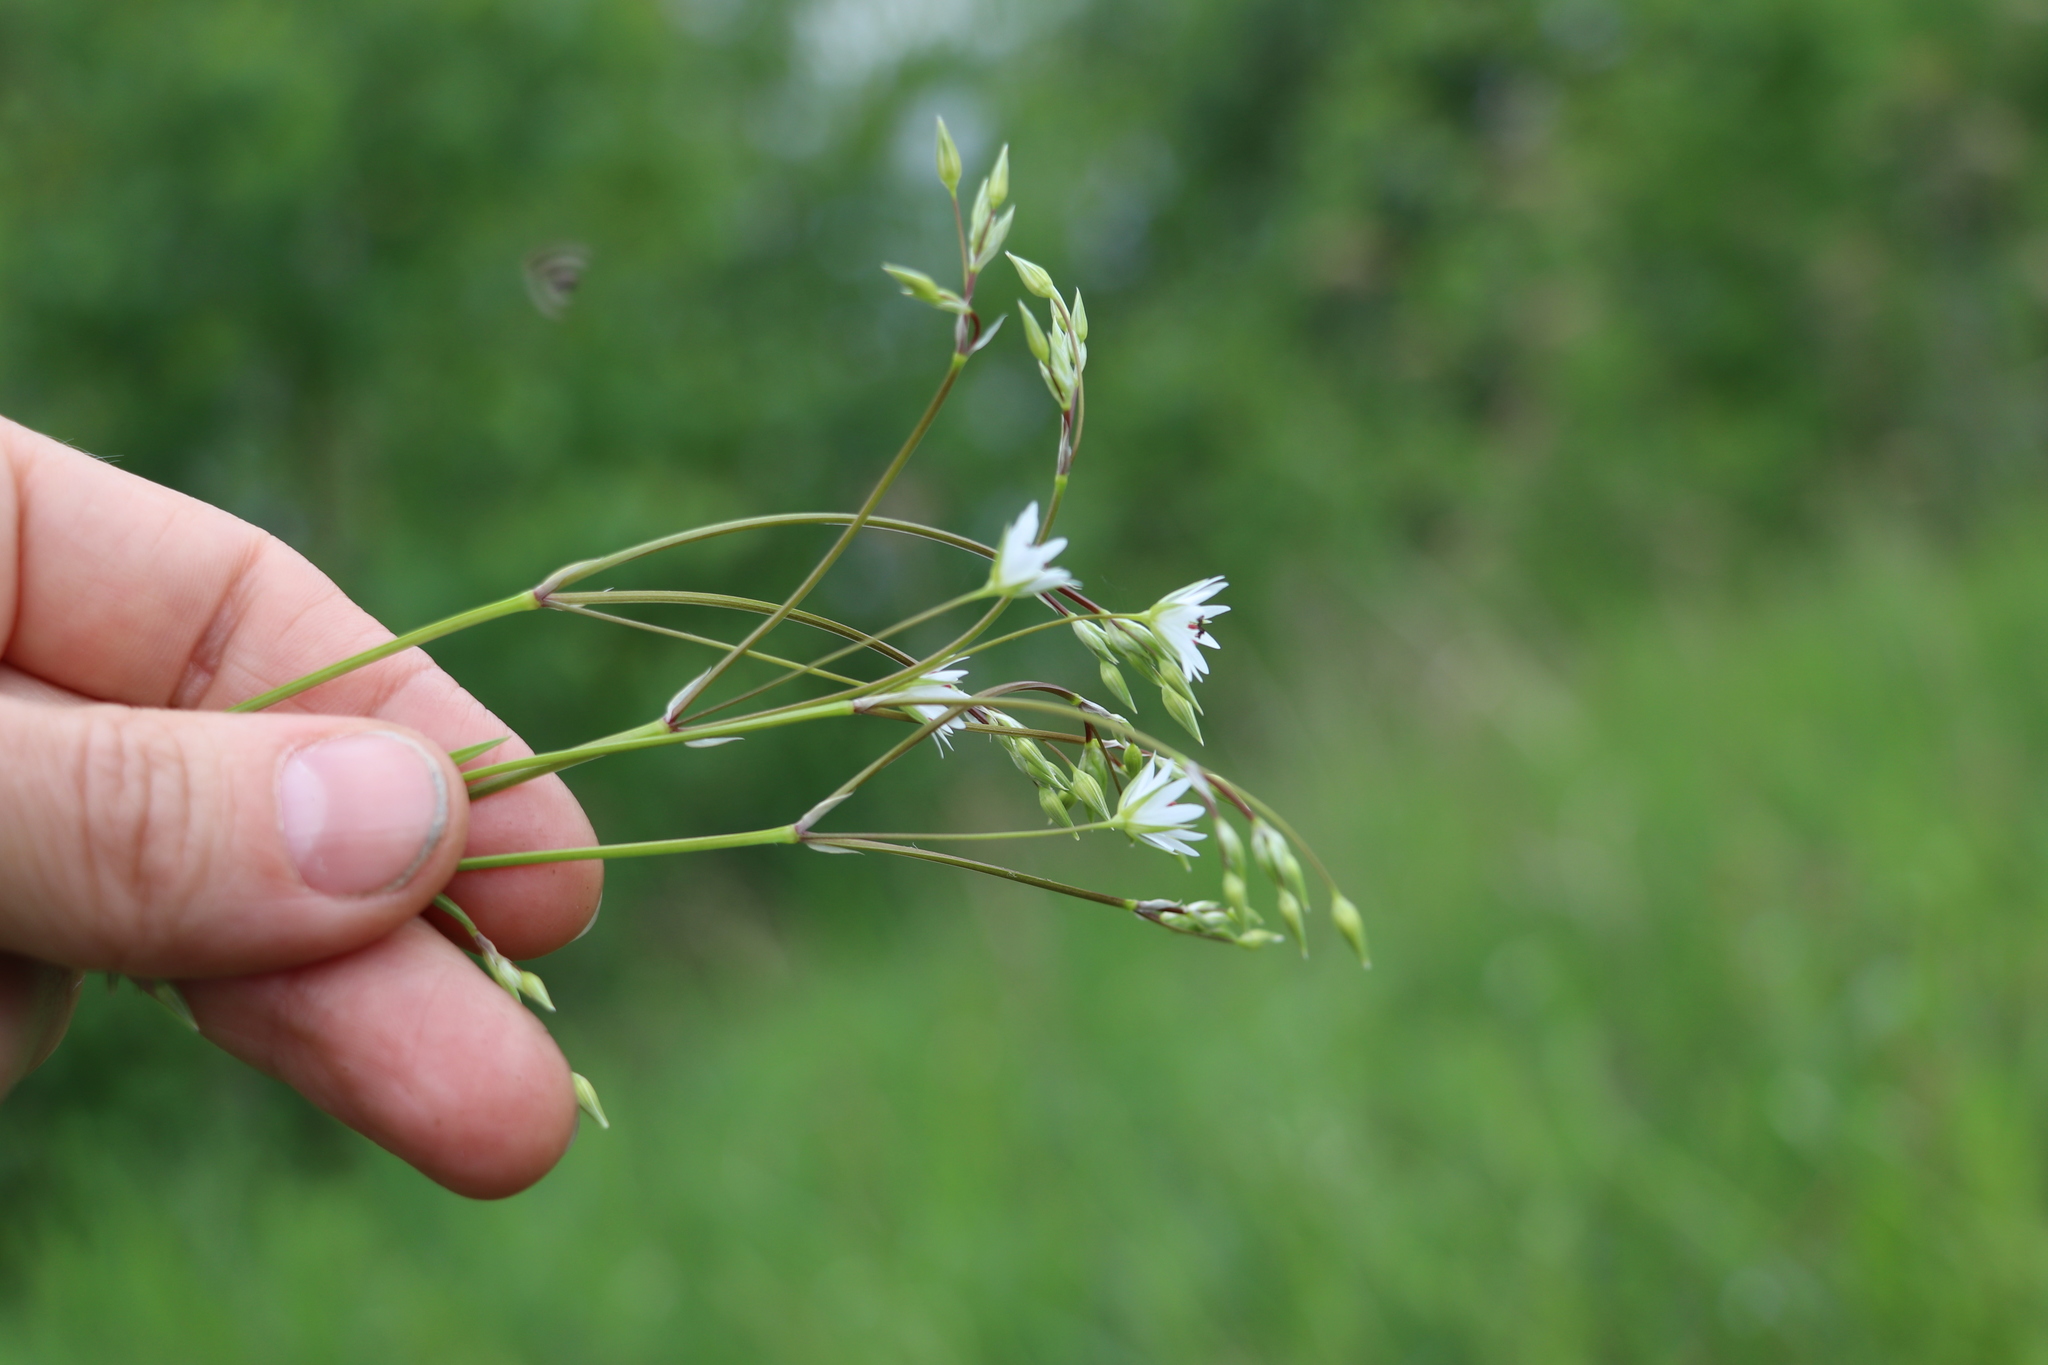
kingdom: Plantae
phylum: Tracheophyta
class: Magnoliopsida
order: Caryophyllales
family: Caryophyllaceae
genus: Stellaria
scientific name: Stellaria graminea
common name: Grass-like starwort
